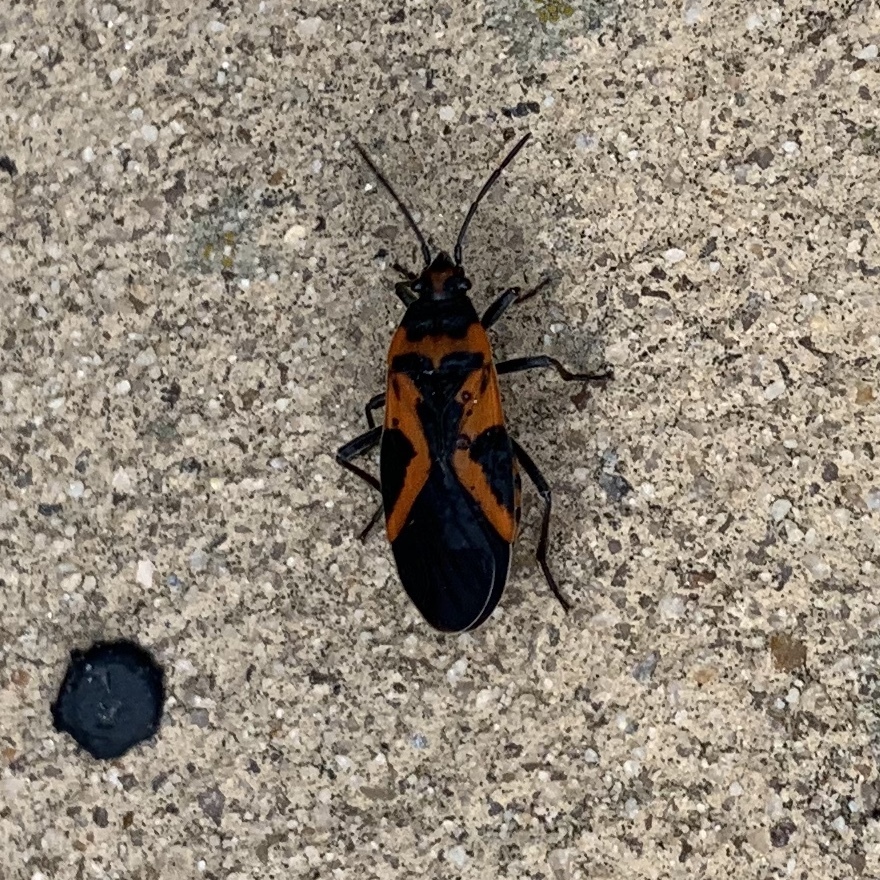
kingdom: Animalia
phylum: Arthropoda
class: Insecta
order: Hemiptera
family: Lygaeidae
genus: Lygaeus
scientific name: Lygaeus turcicus
